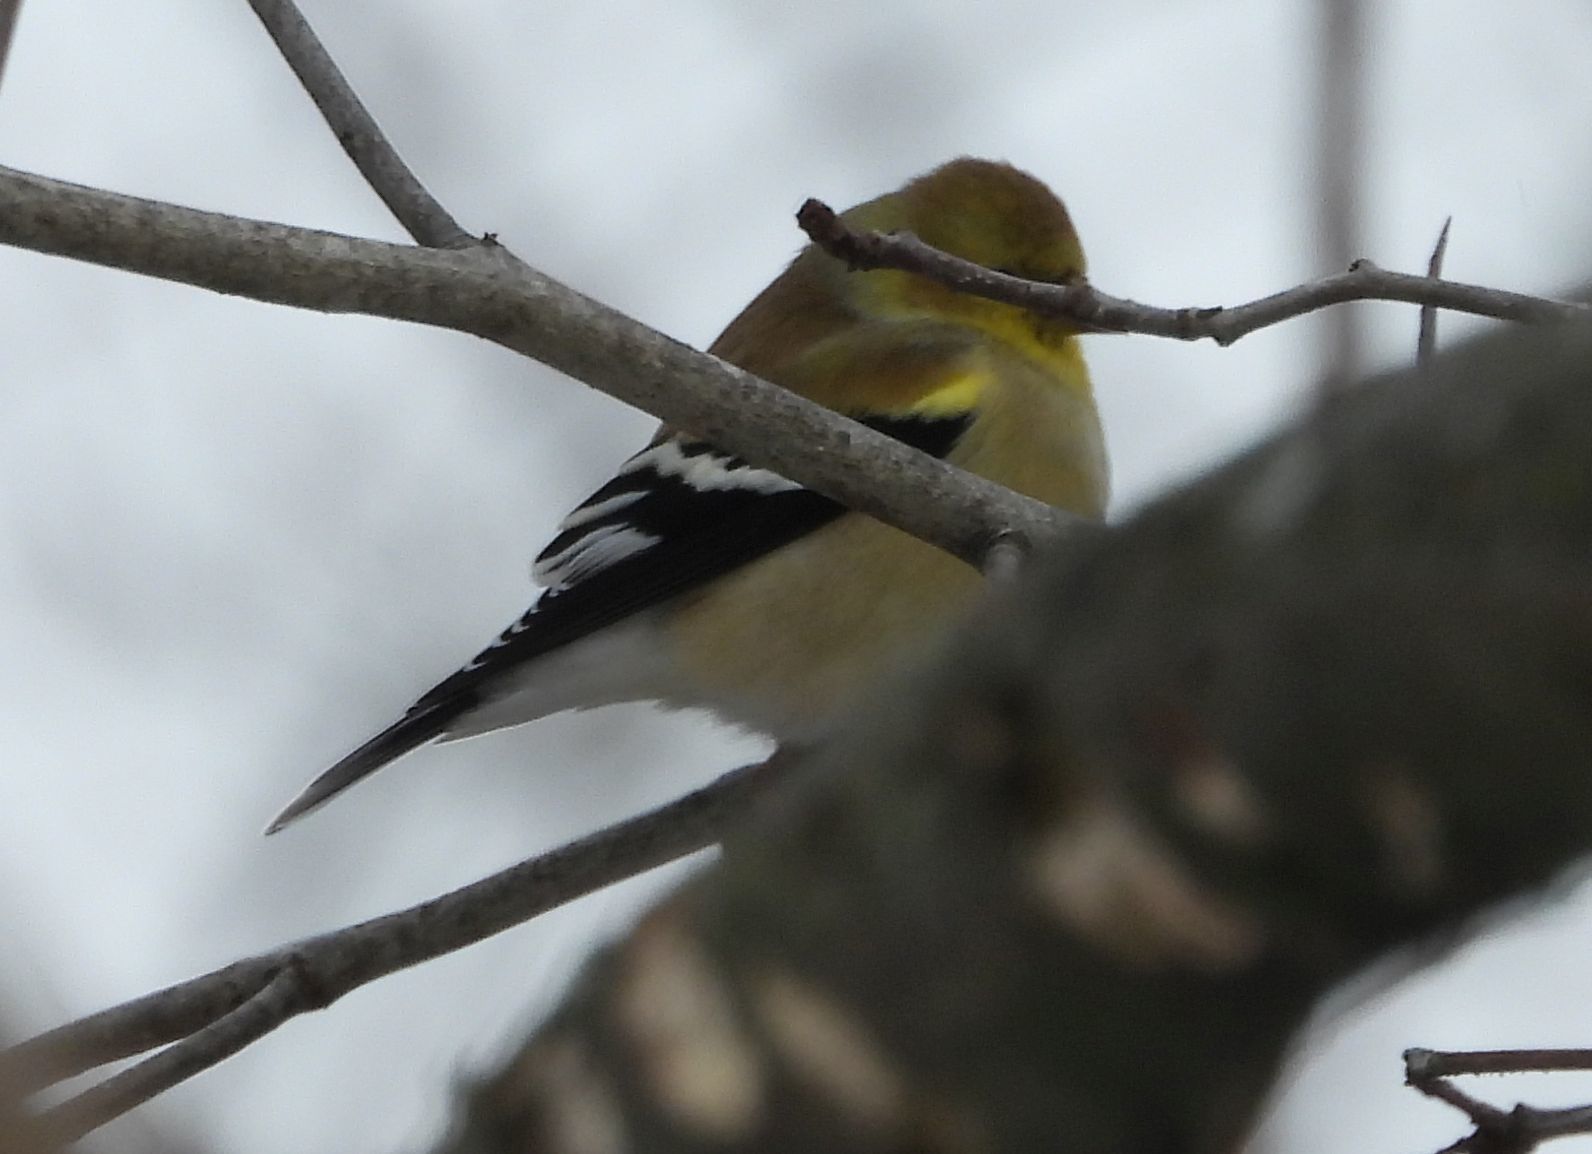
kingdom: Animalia
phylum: Chordata
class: Aves
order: Passeriformes
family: Fringillidae
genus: Spinus
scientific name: Spinus tristis
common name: American goldfinch
